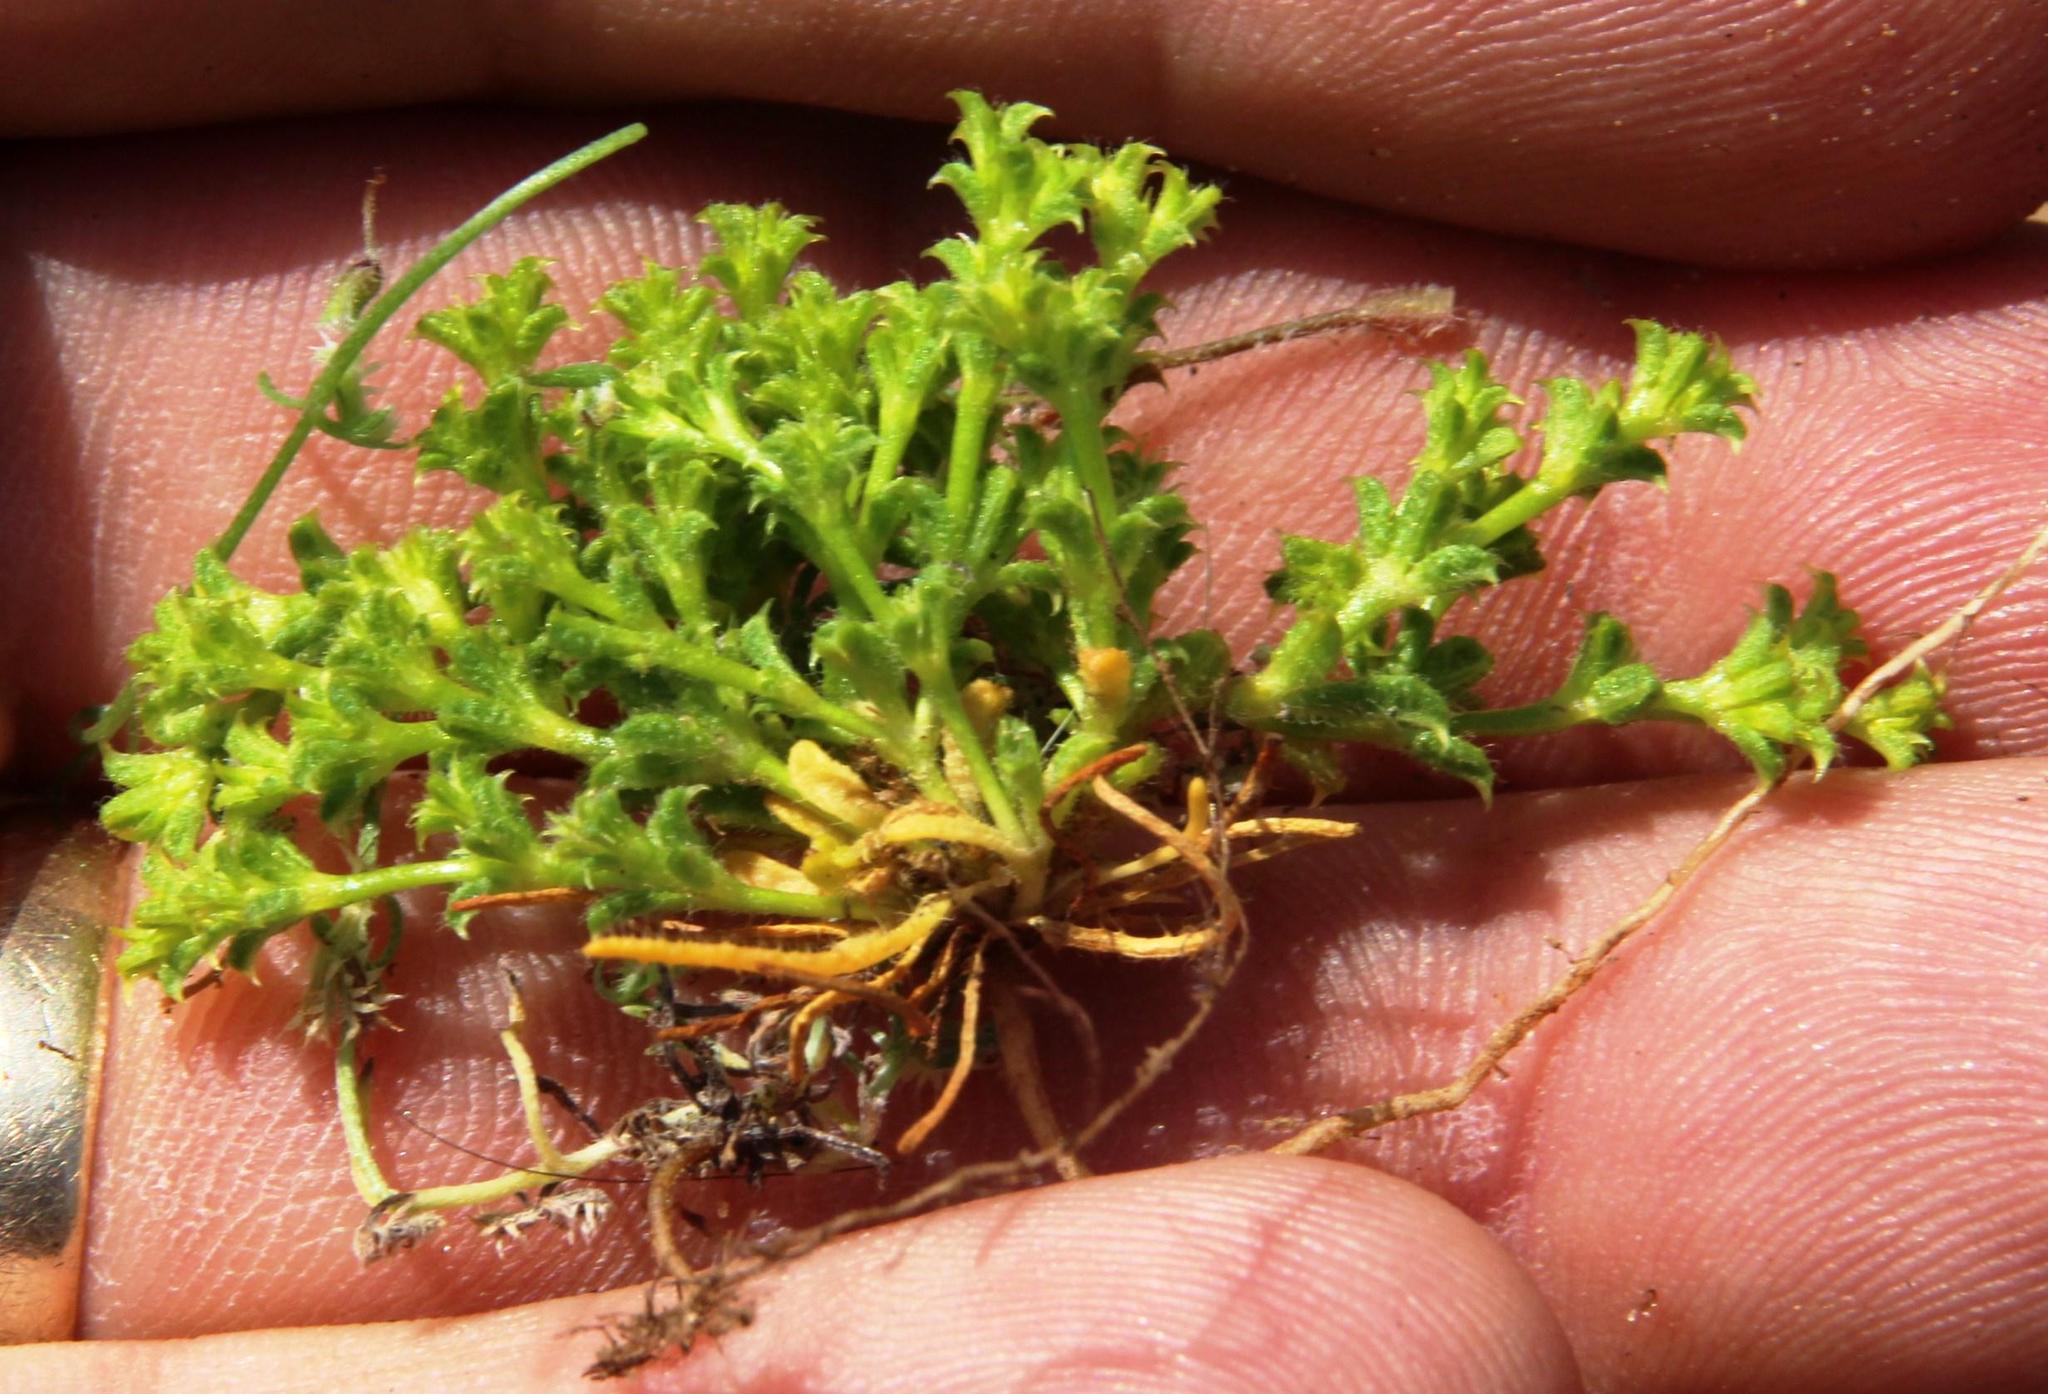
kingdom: Plantae
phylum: Tracheophyta
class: Magnoliopsida
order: Caryophyllales
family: Polygonaceae
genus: Lastarriaea
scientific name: Lastarriaea chilensis
